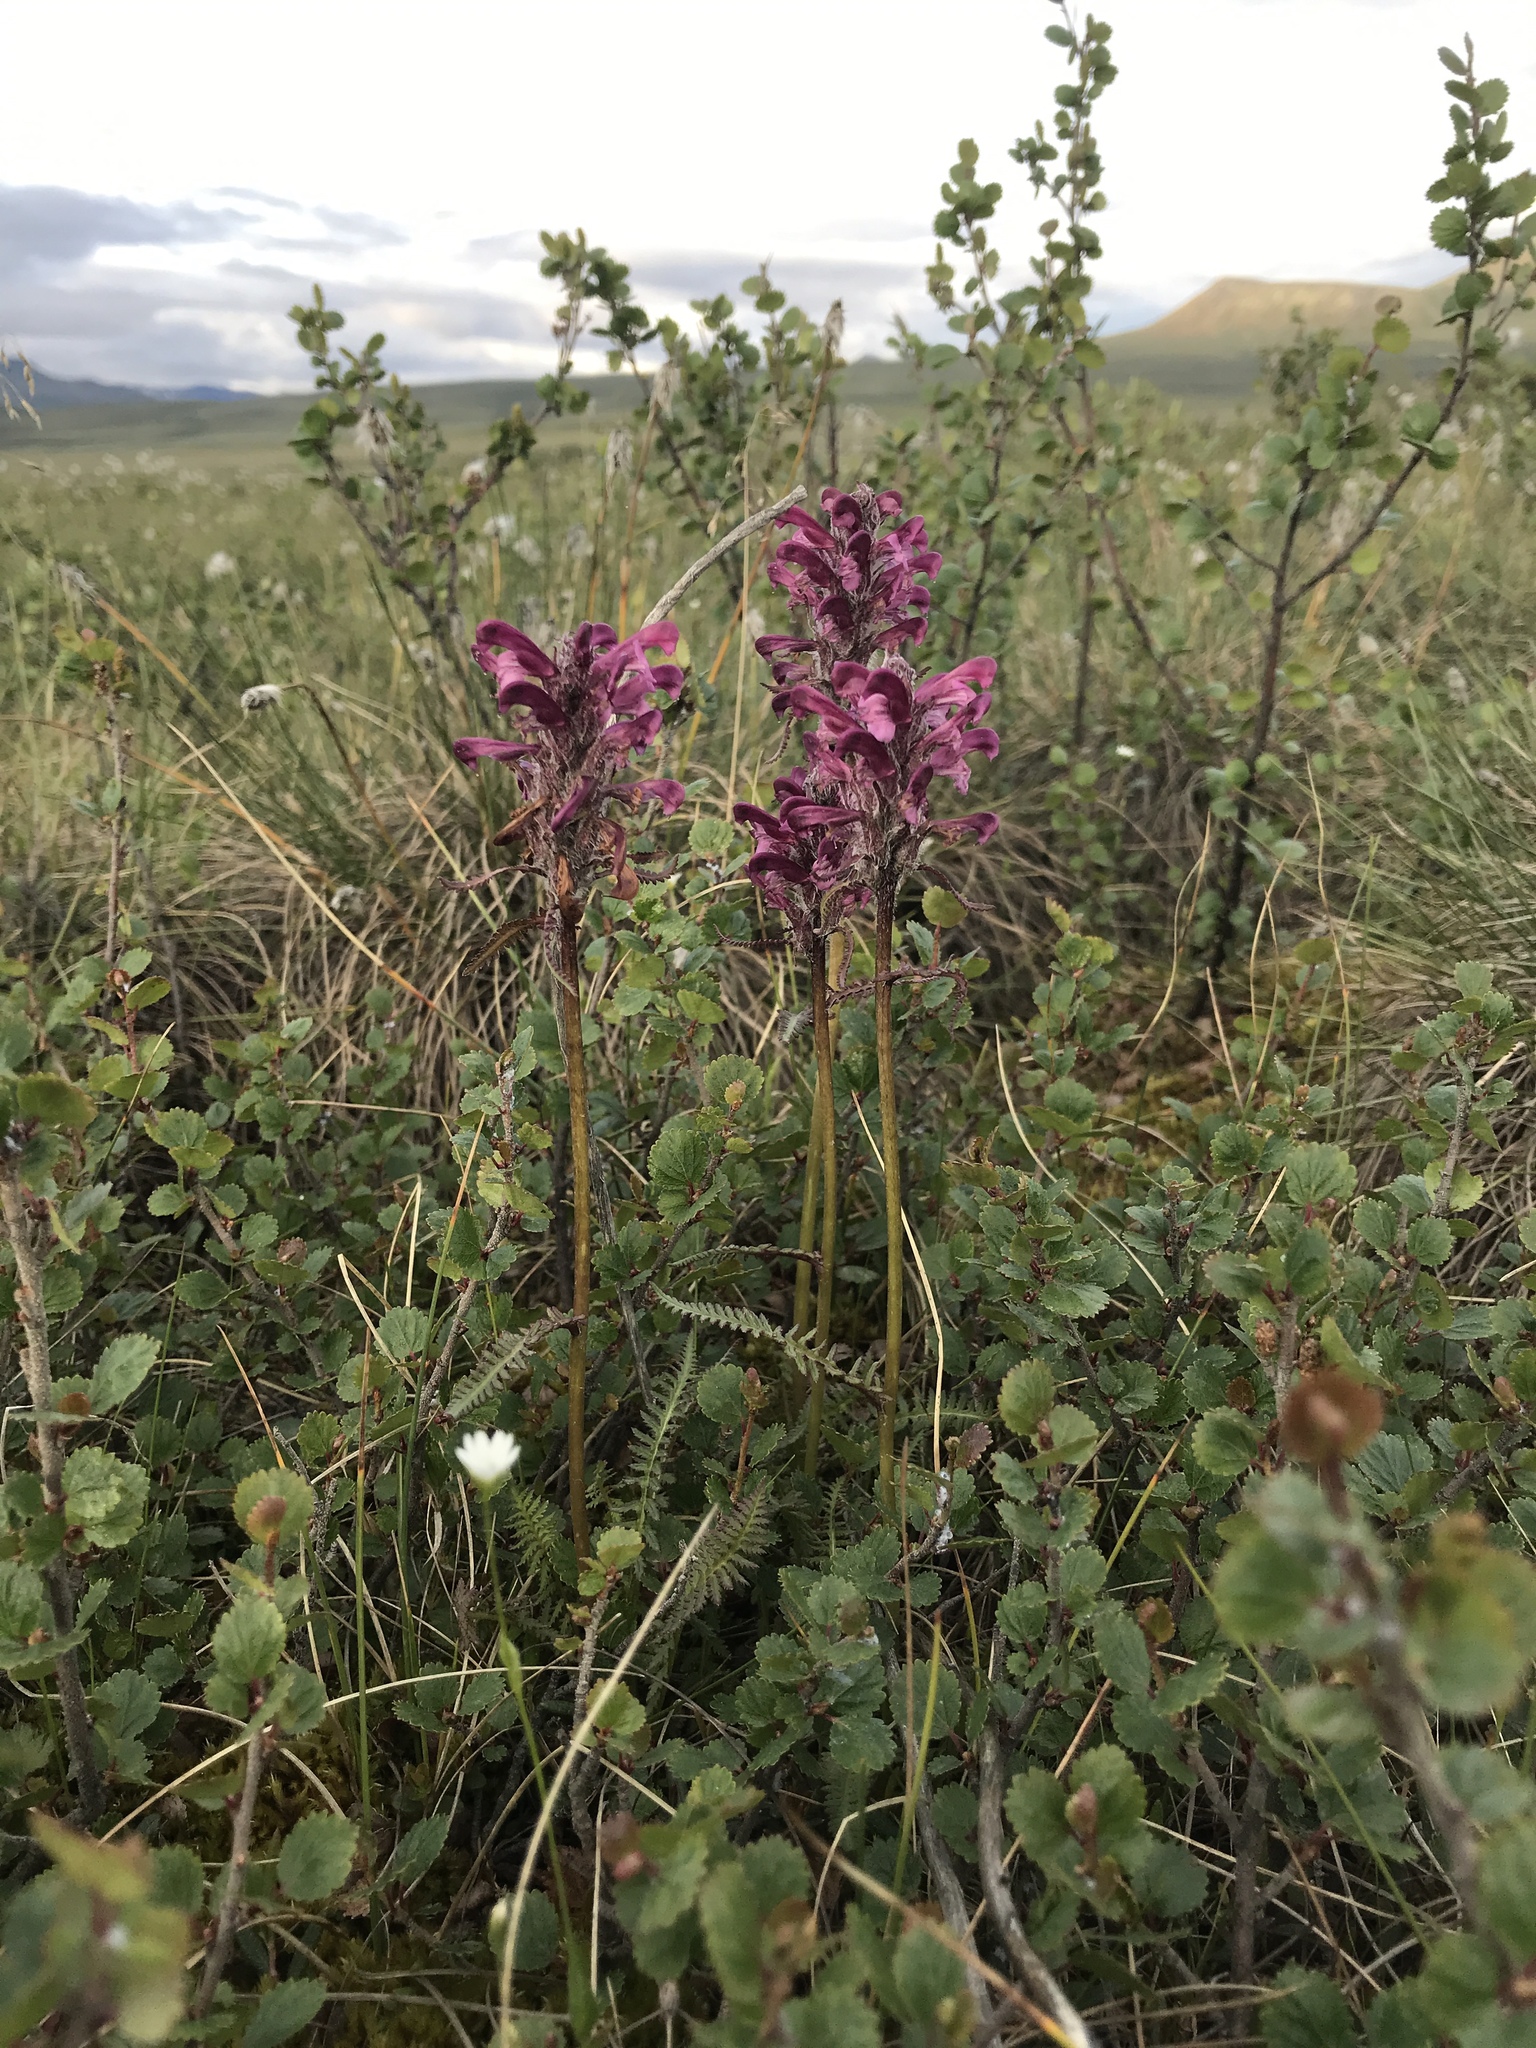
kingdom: Plantae
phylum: Tracheophyta
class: Magnoliopsida
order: Lamiales
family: Orobanchaceae
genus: Pedicularis
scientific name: Pedicularis interior
